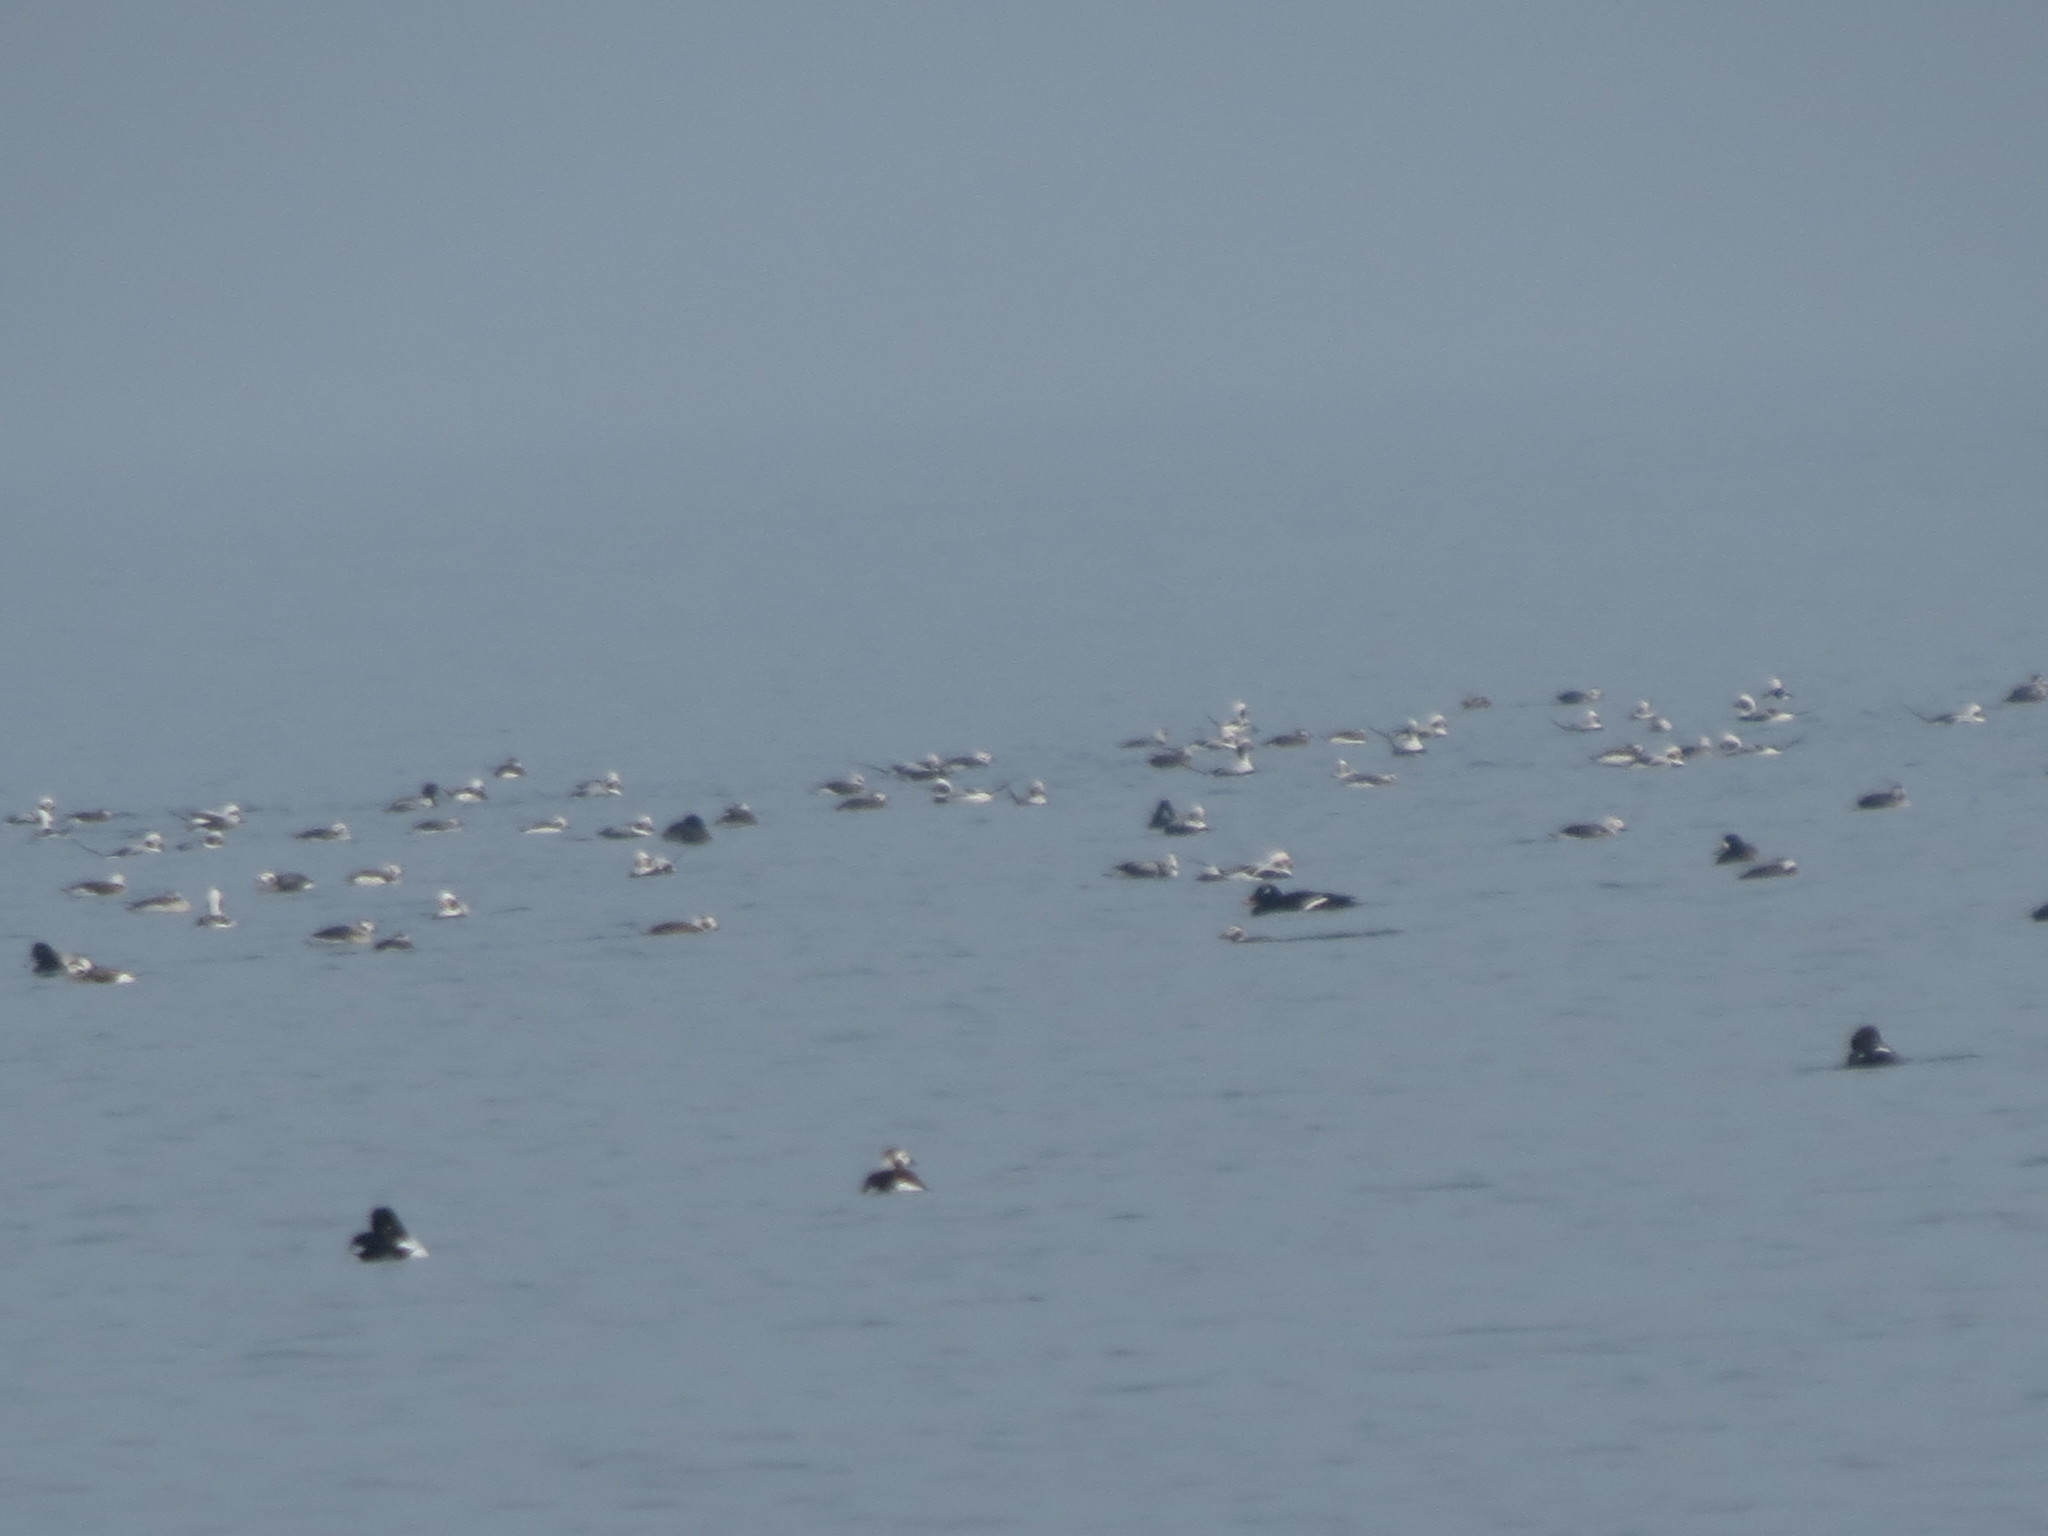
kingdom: Animalia
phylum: Chordata
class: Aves
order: Anseriformes
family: Anatidae
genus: Clangula
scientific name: Clangula hyemalis
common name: Long-tailed duck
